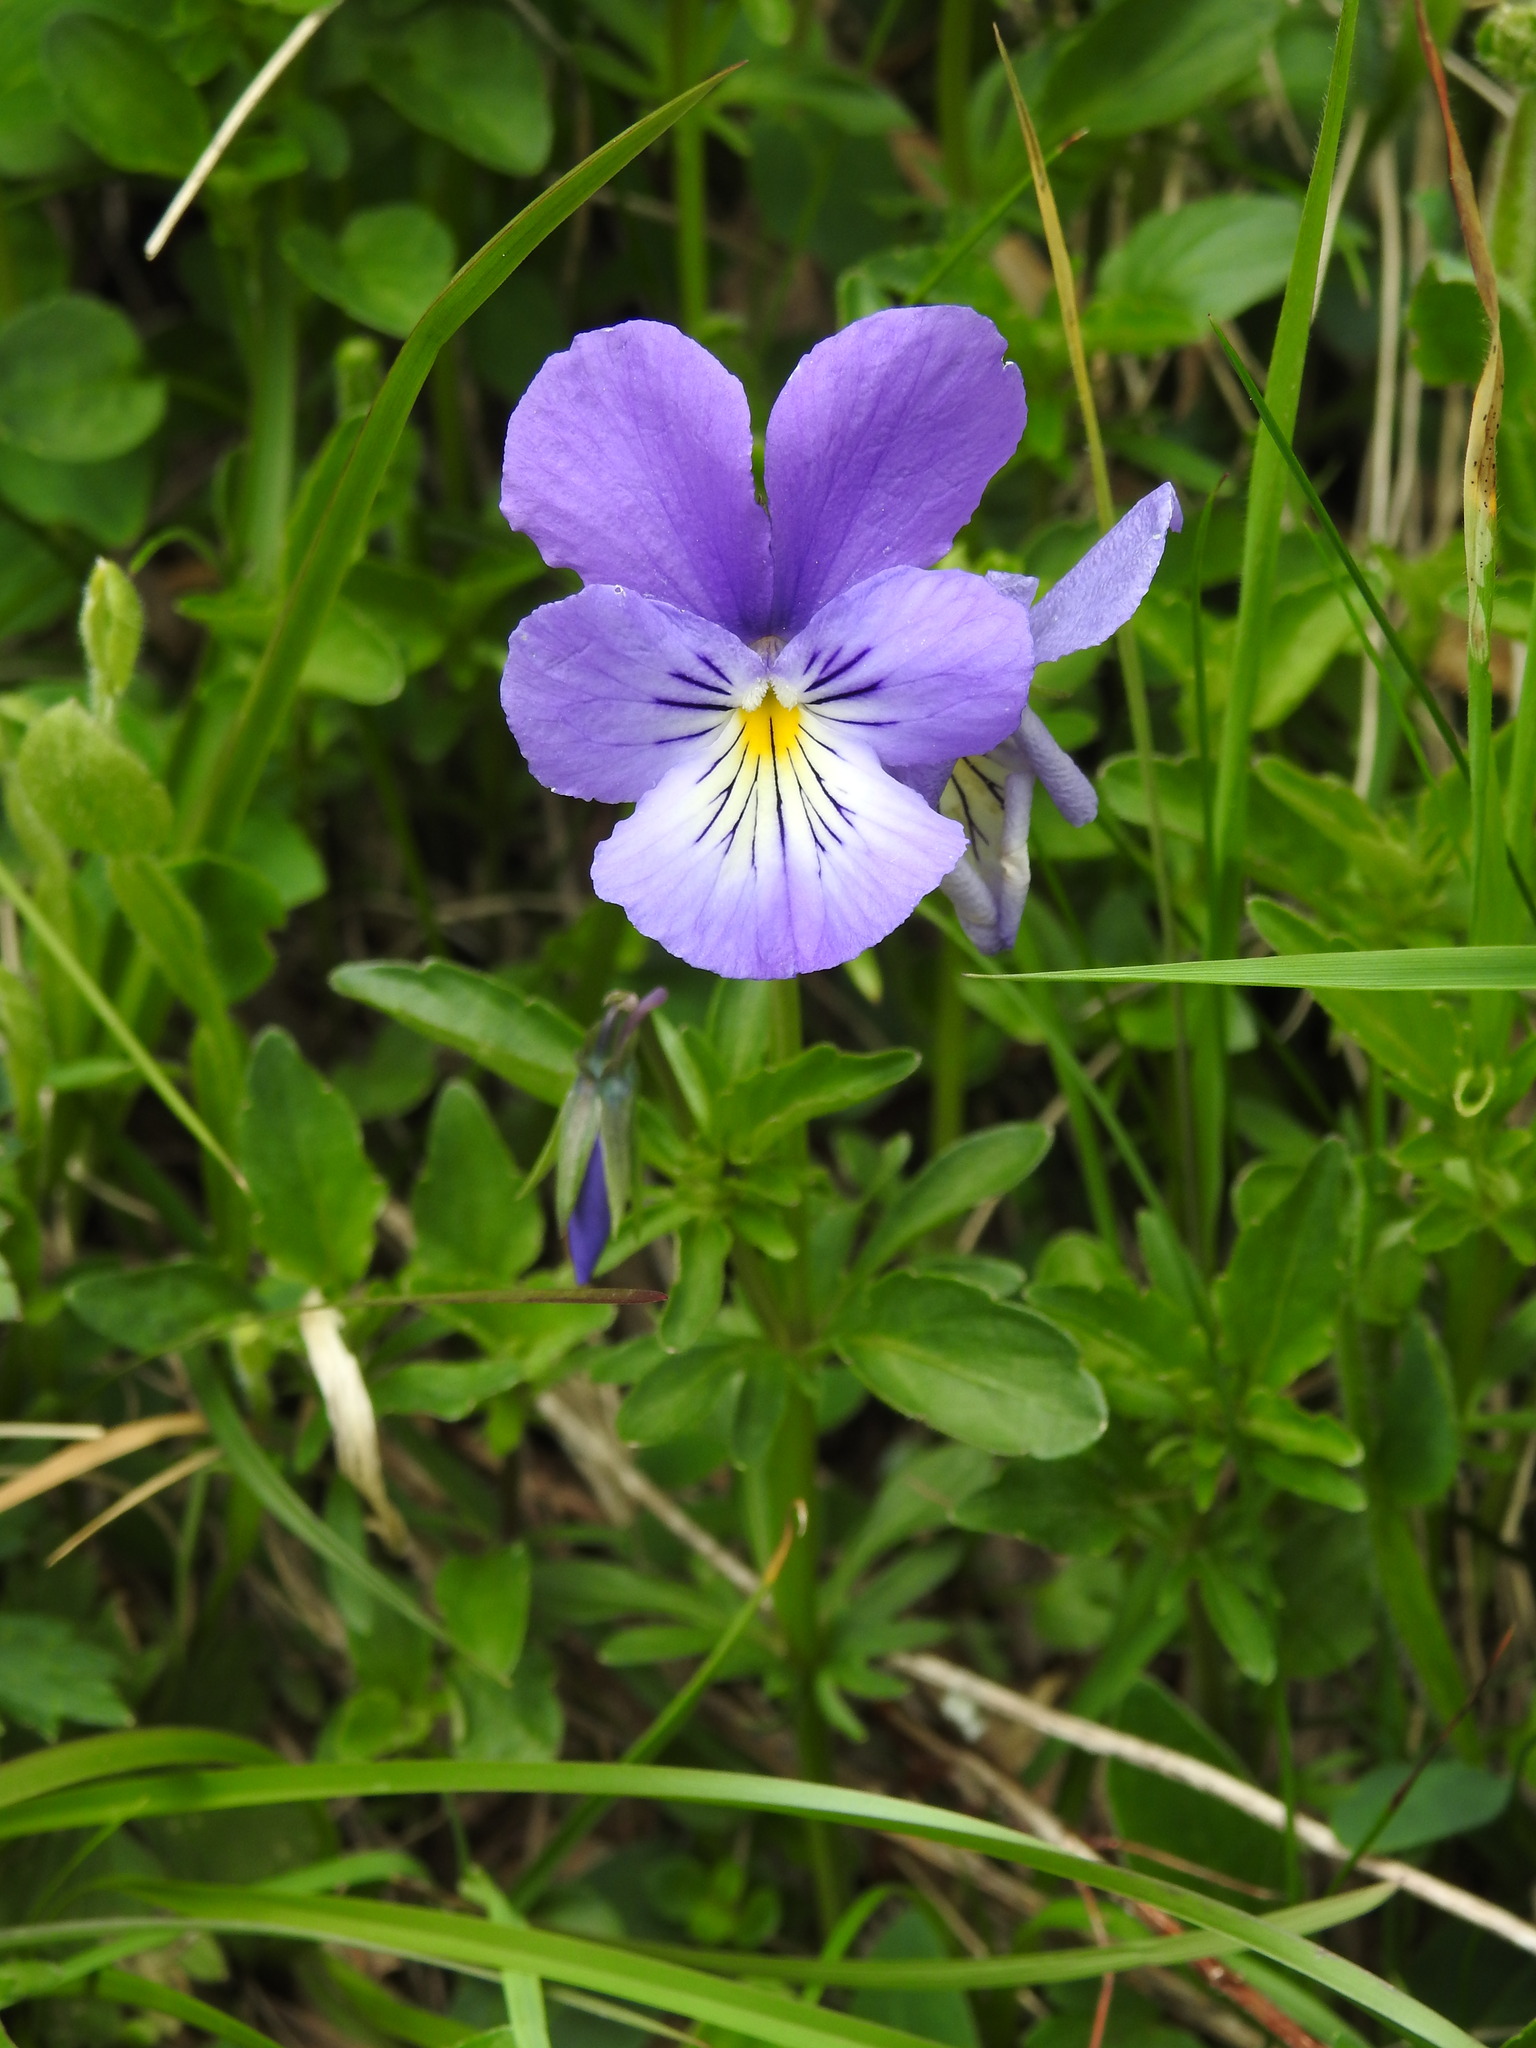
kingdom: Plantae
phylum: Tracheophyta
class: Magnoliopsida
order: Malpighiales
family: Violaceae
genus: Viola
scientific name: Viola lutea
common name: Mountain pansy
